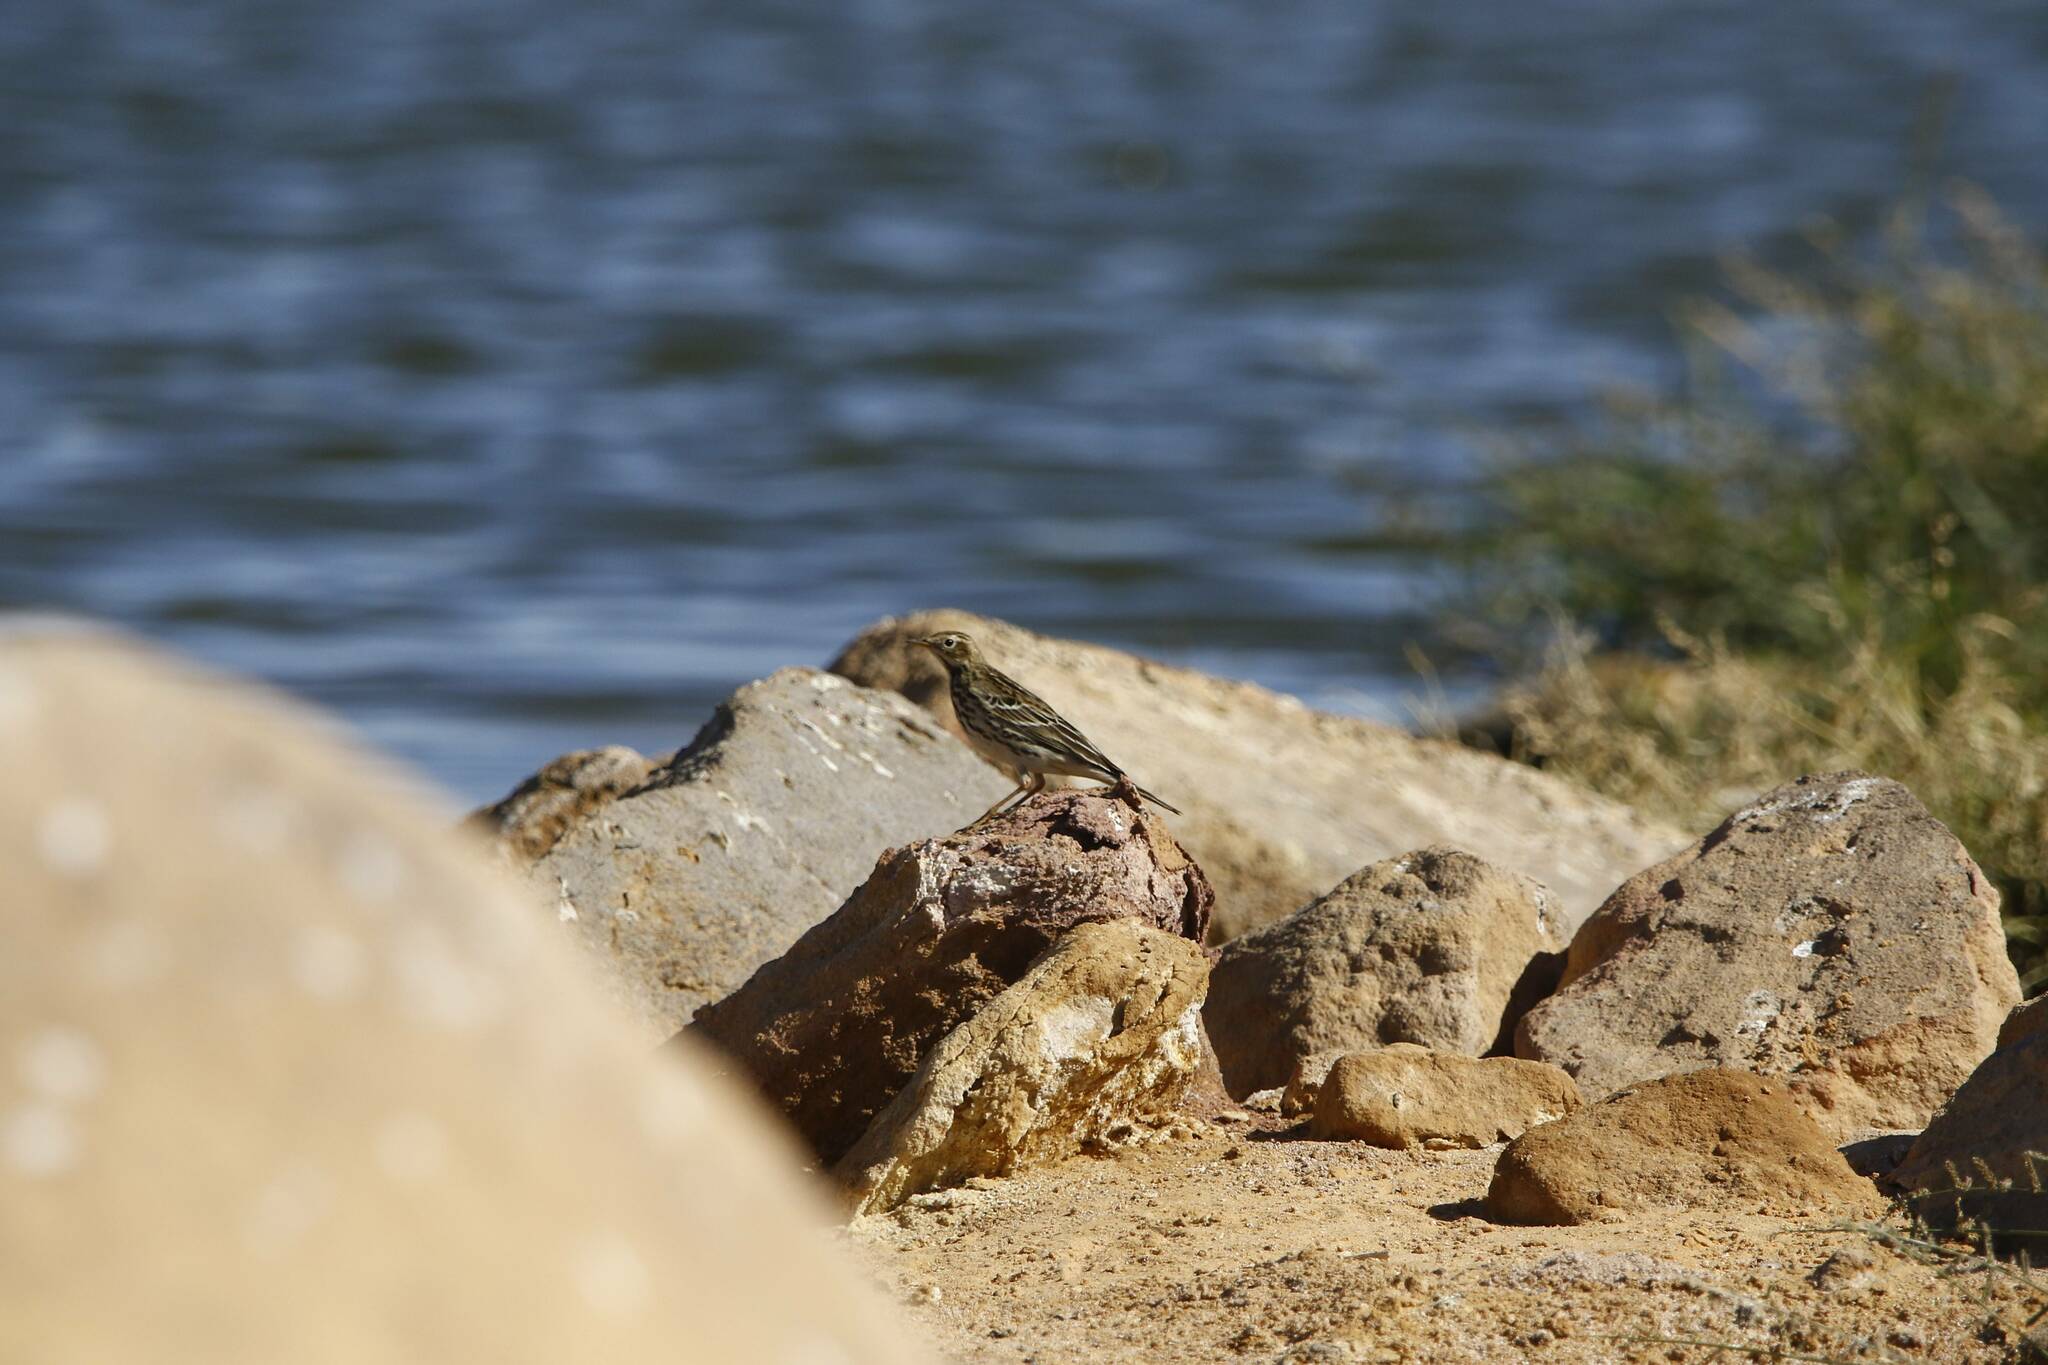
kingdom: Animalia
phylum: Chordata
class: Aves
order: Passeriformes
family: Motacillidae
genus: Anthus
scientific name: Anthus cervinus
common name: Red-throated pipit
